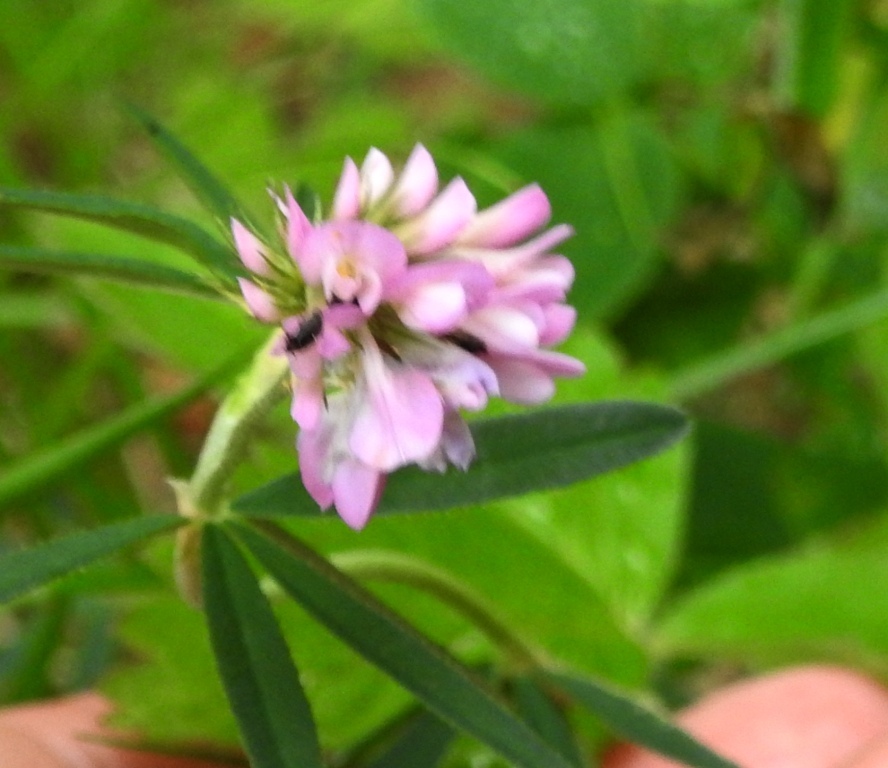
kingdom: Plantae
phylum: Tracheophyta
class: Magnoliopsida
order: Fabales
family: Fabaceae
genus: Trifolium
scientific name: Trifolium lupinaster
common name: Lupine clover
